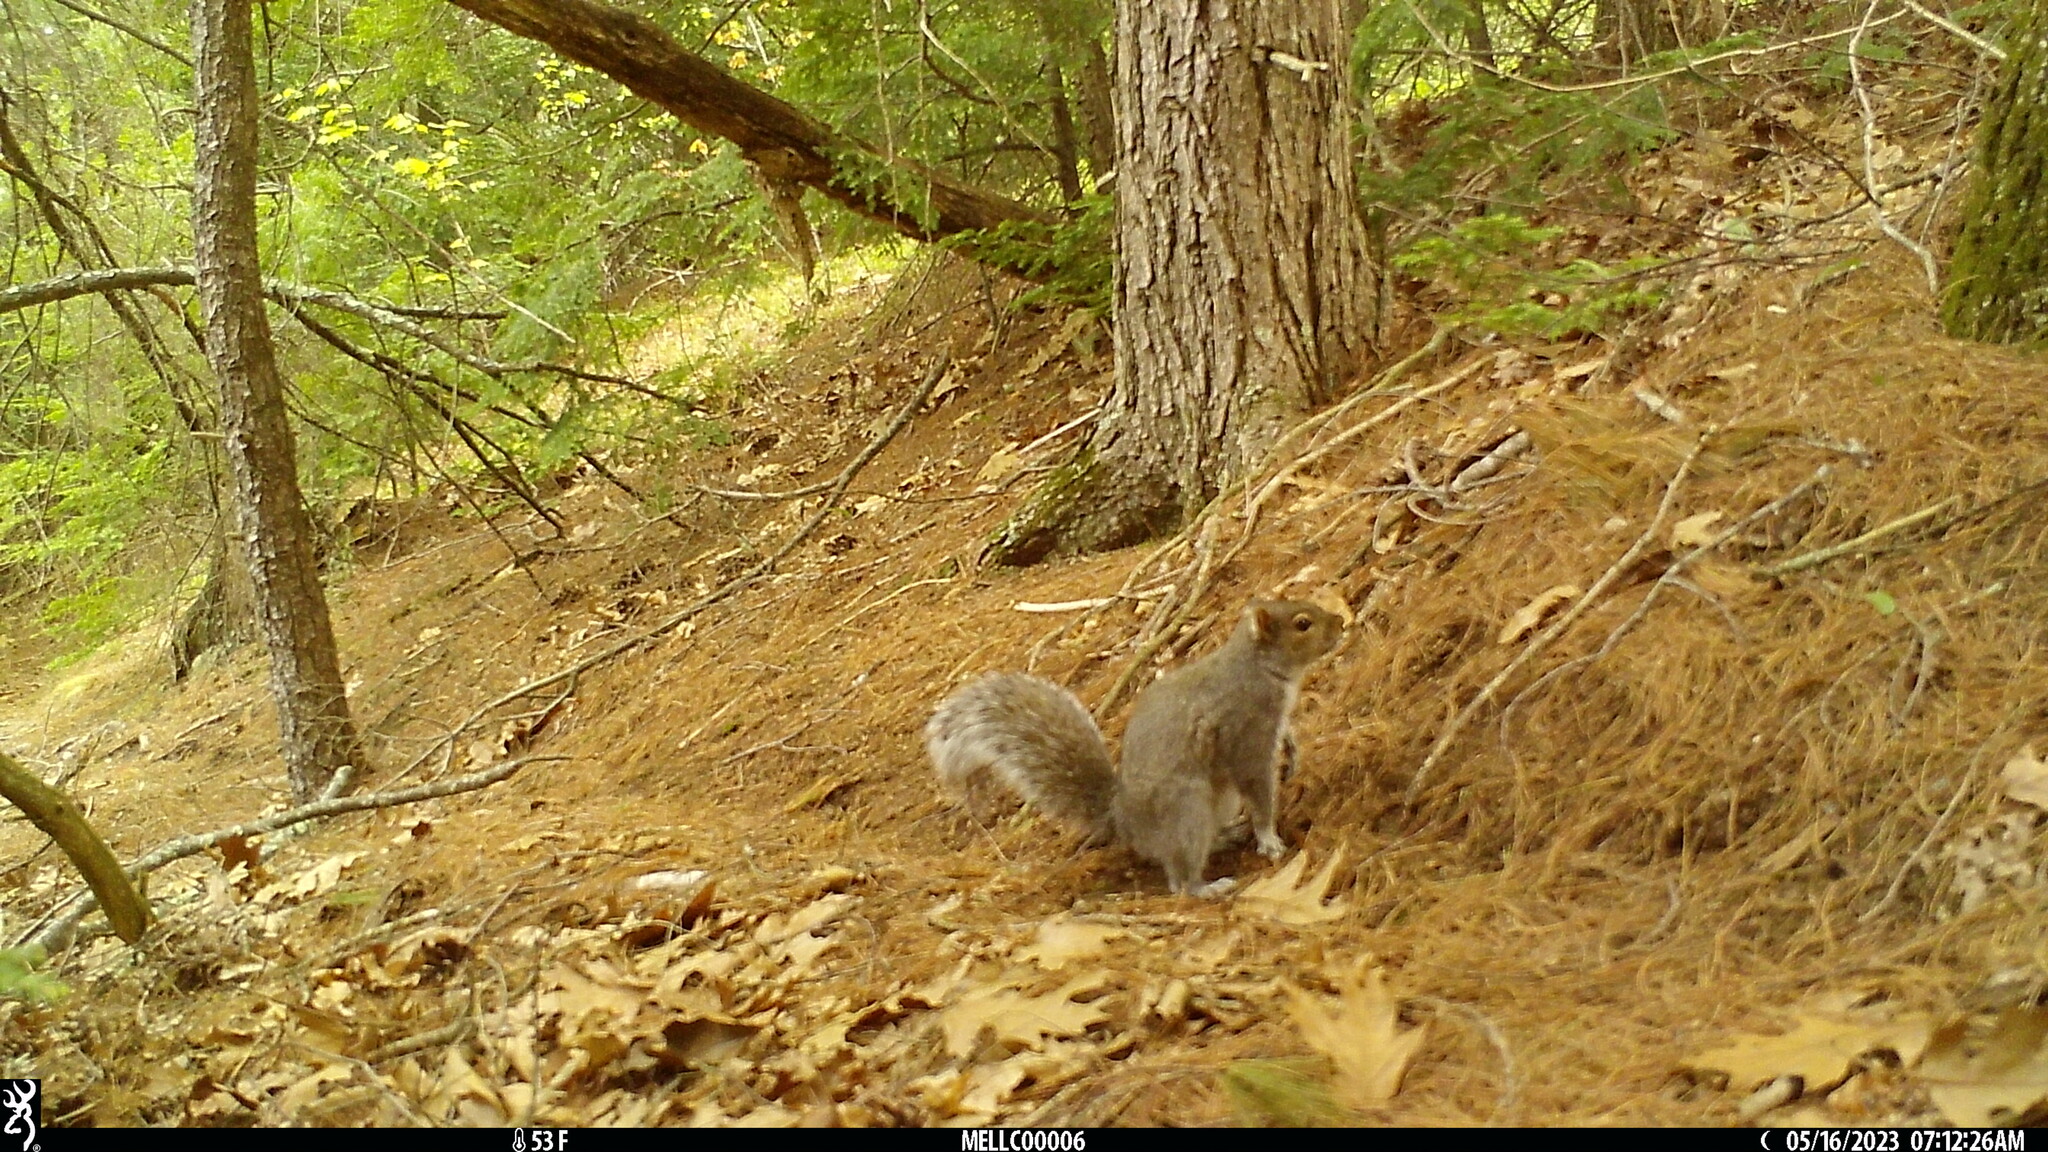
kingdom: Animalia
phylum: Chordata
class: Mammalia
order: Rodentia
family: Sciuridae
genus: Sciurus
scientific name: Sciurus carolinensis
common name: Eastern gray squirrel
